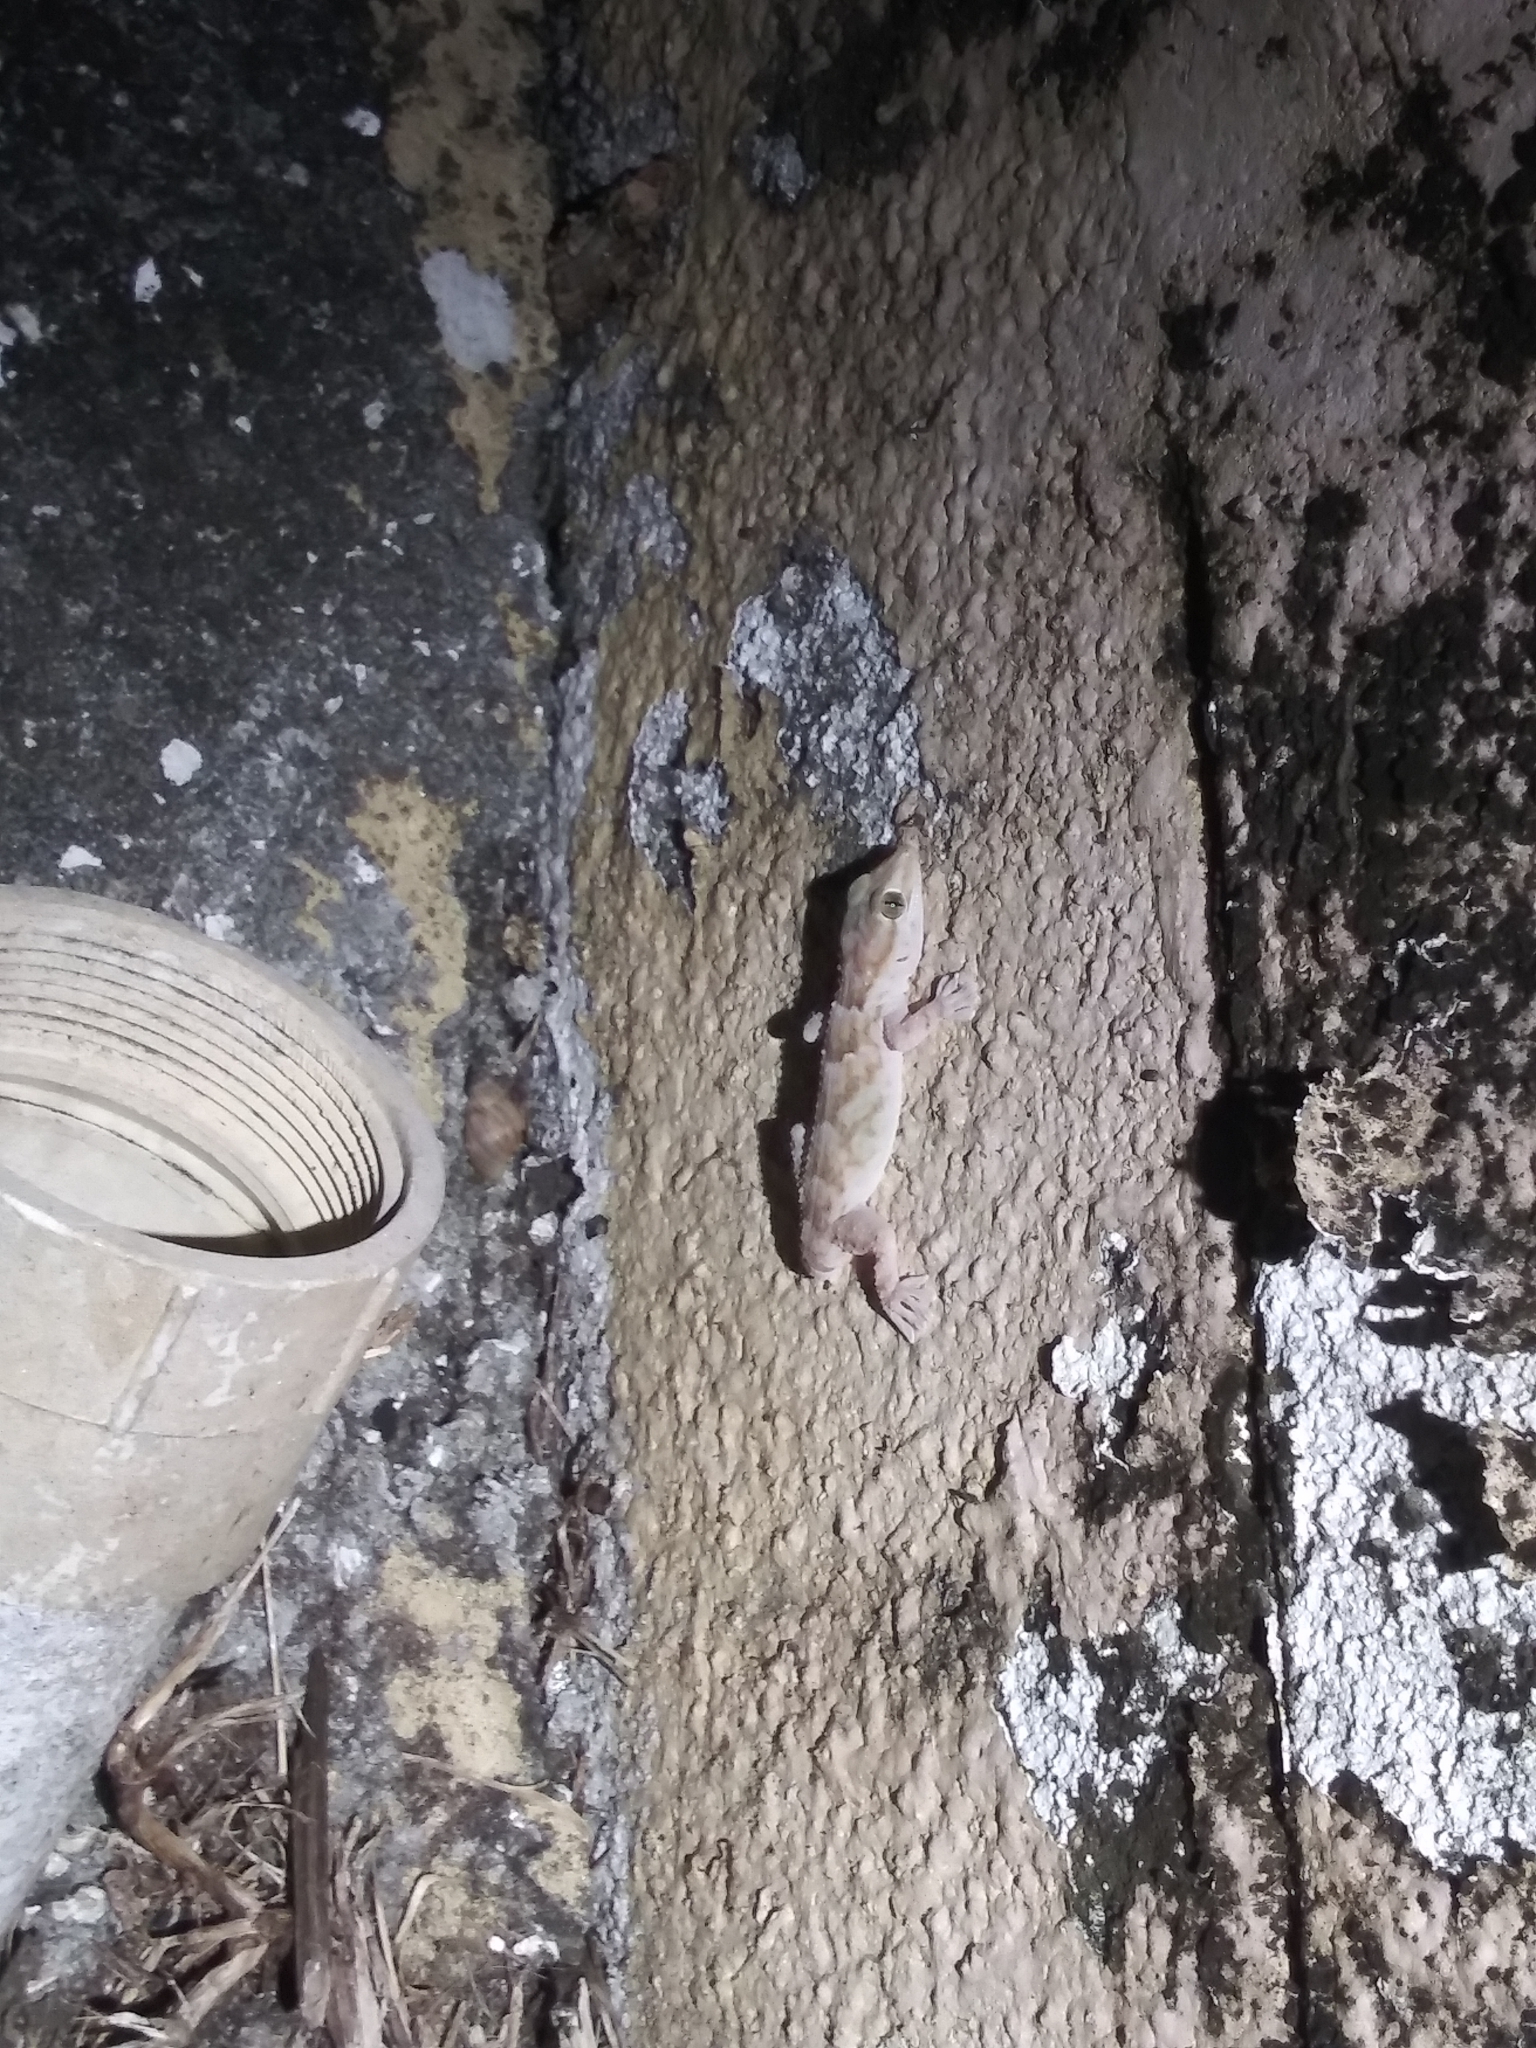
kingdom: Animalia
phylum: Chordata
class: Squamata
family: Phyllodactylidae
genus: Tarentola
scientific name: Tarentola annularis
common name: White-spotted wall gecko
